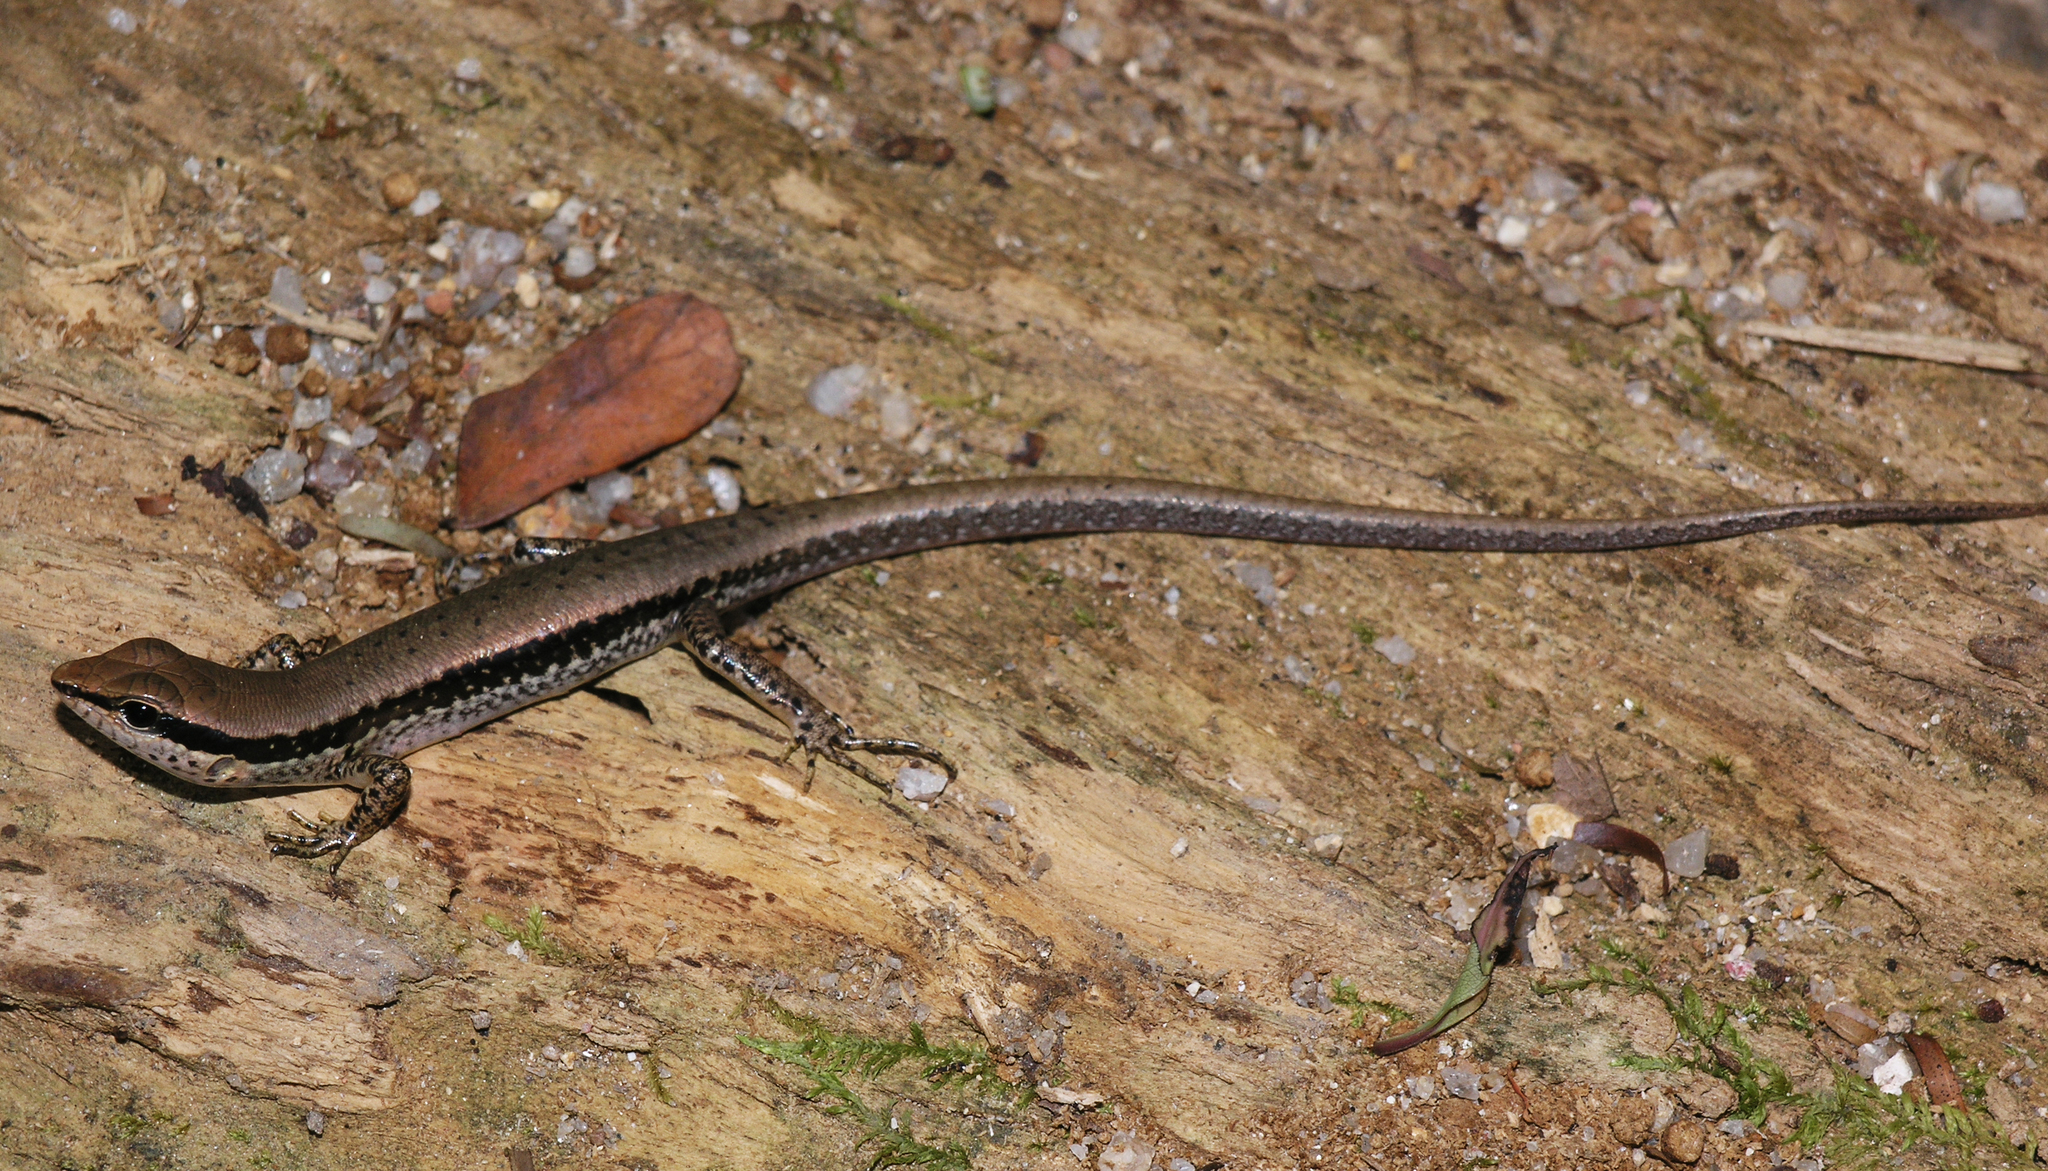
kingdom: Animalia
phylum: Chordata
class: Squamata
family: Scincidae
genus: Sphenomorphus
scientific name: Sphenomorphus maculatus
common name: Maculated forest skink
